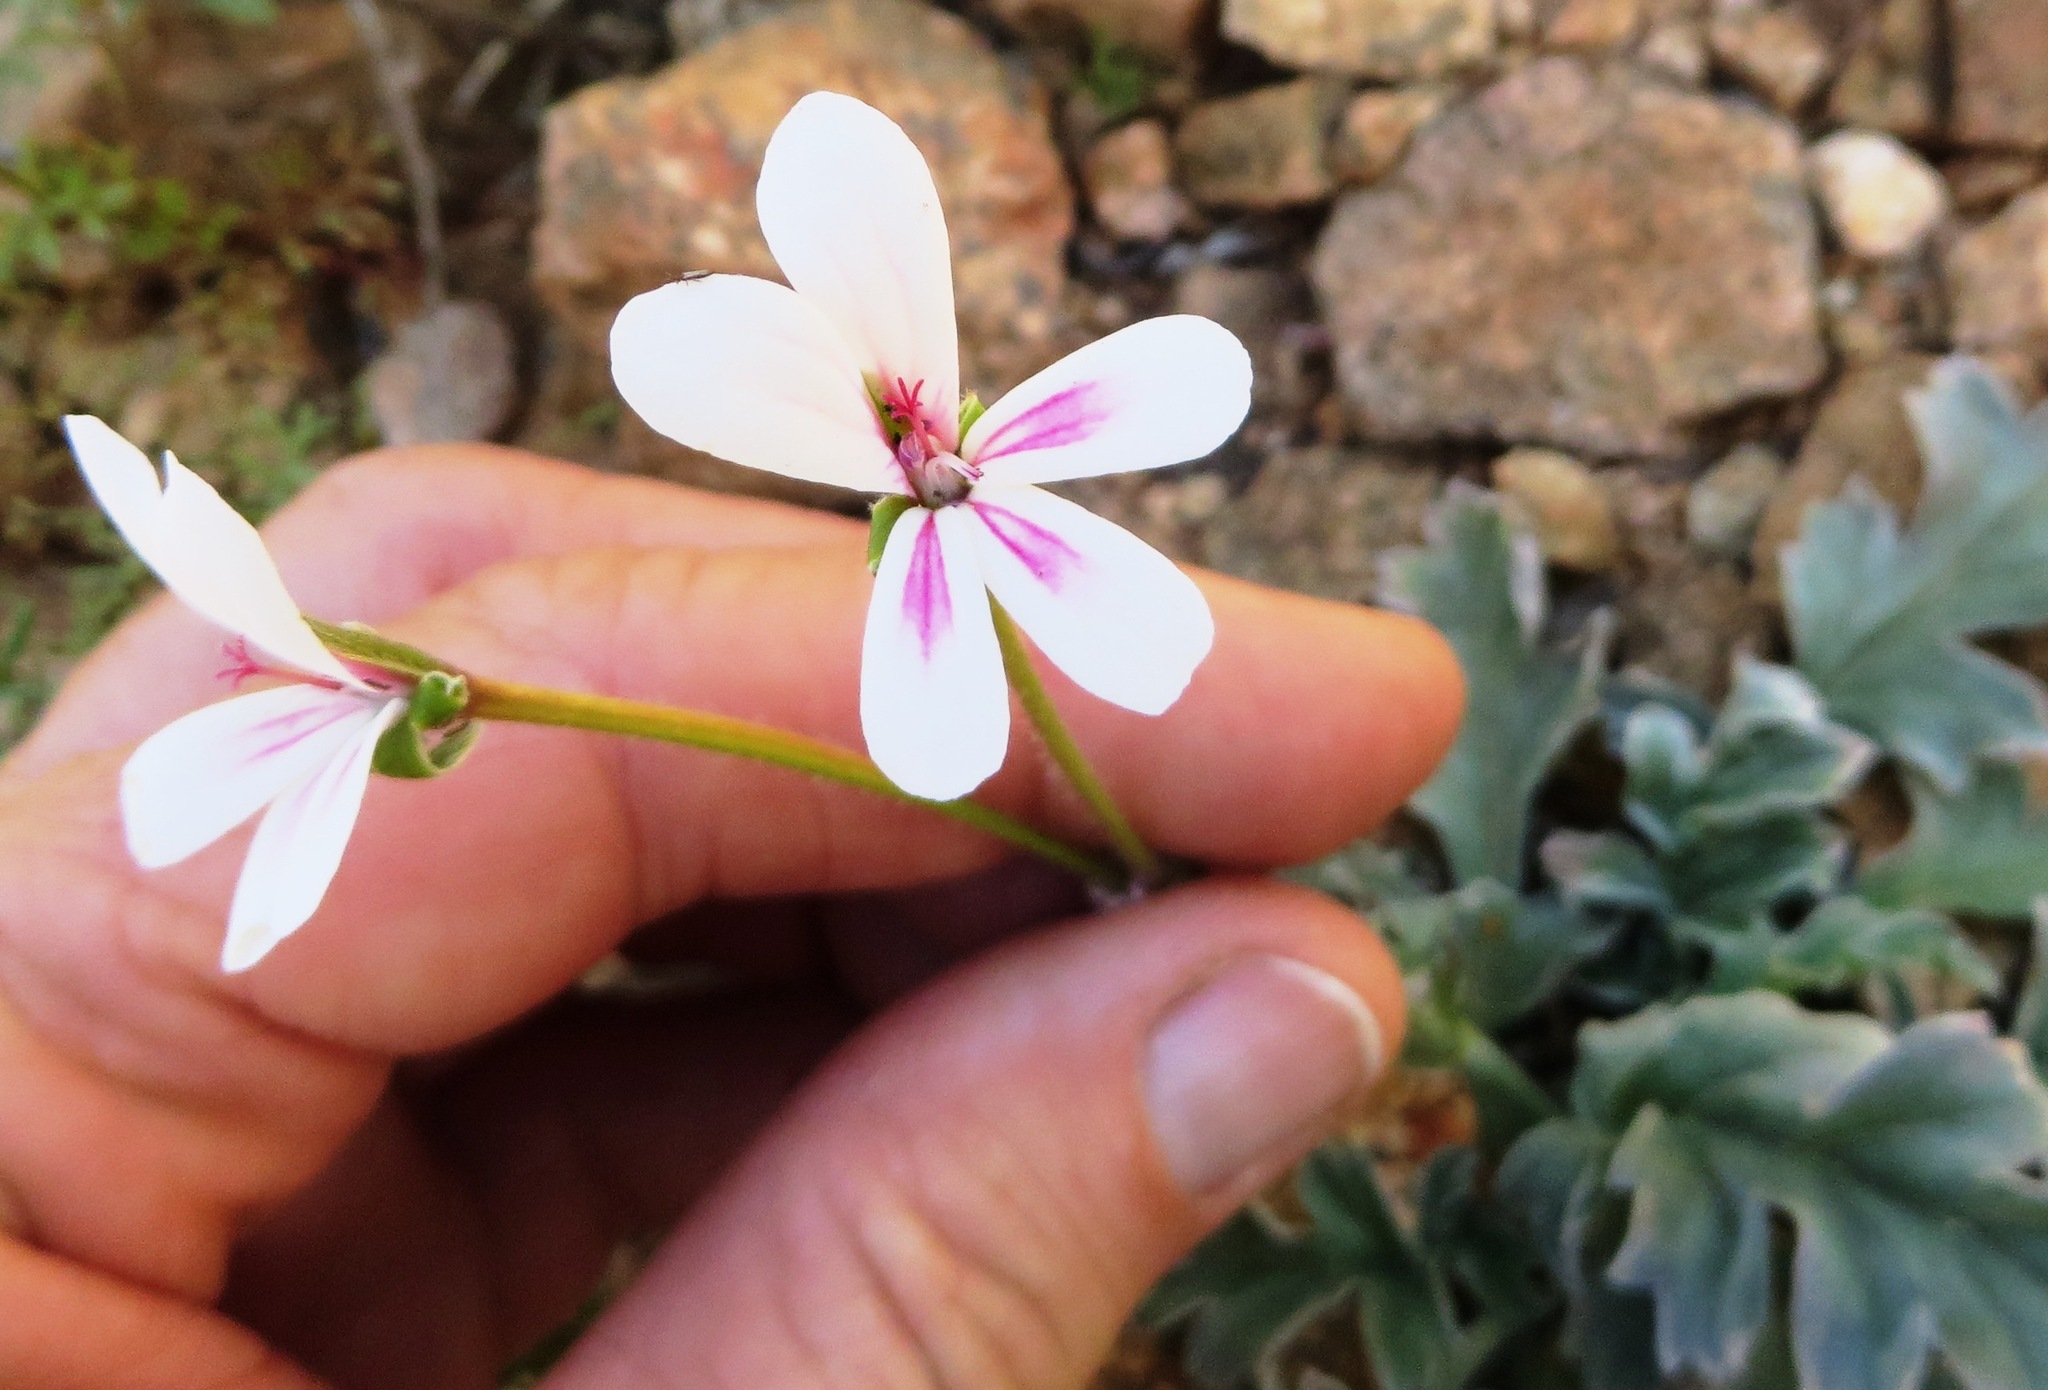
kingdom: Plantae
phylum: Tracheophyta
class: Magnoliopsida
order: Geraniales
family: Geraniaceae
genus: Pelargonium
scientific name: Pelargonium pulchellum
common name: Nonesuch pelargonium
